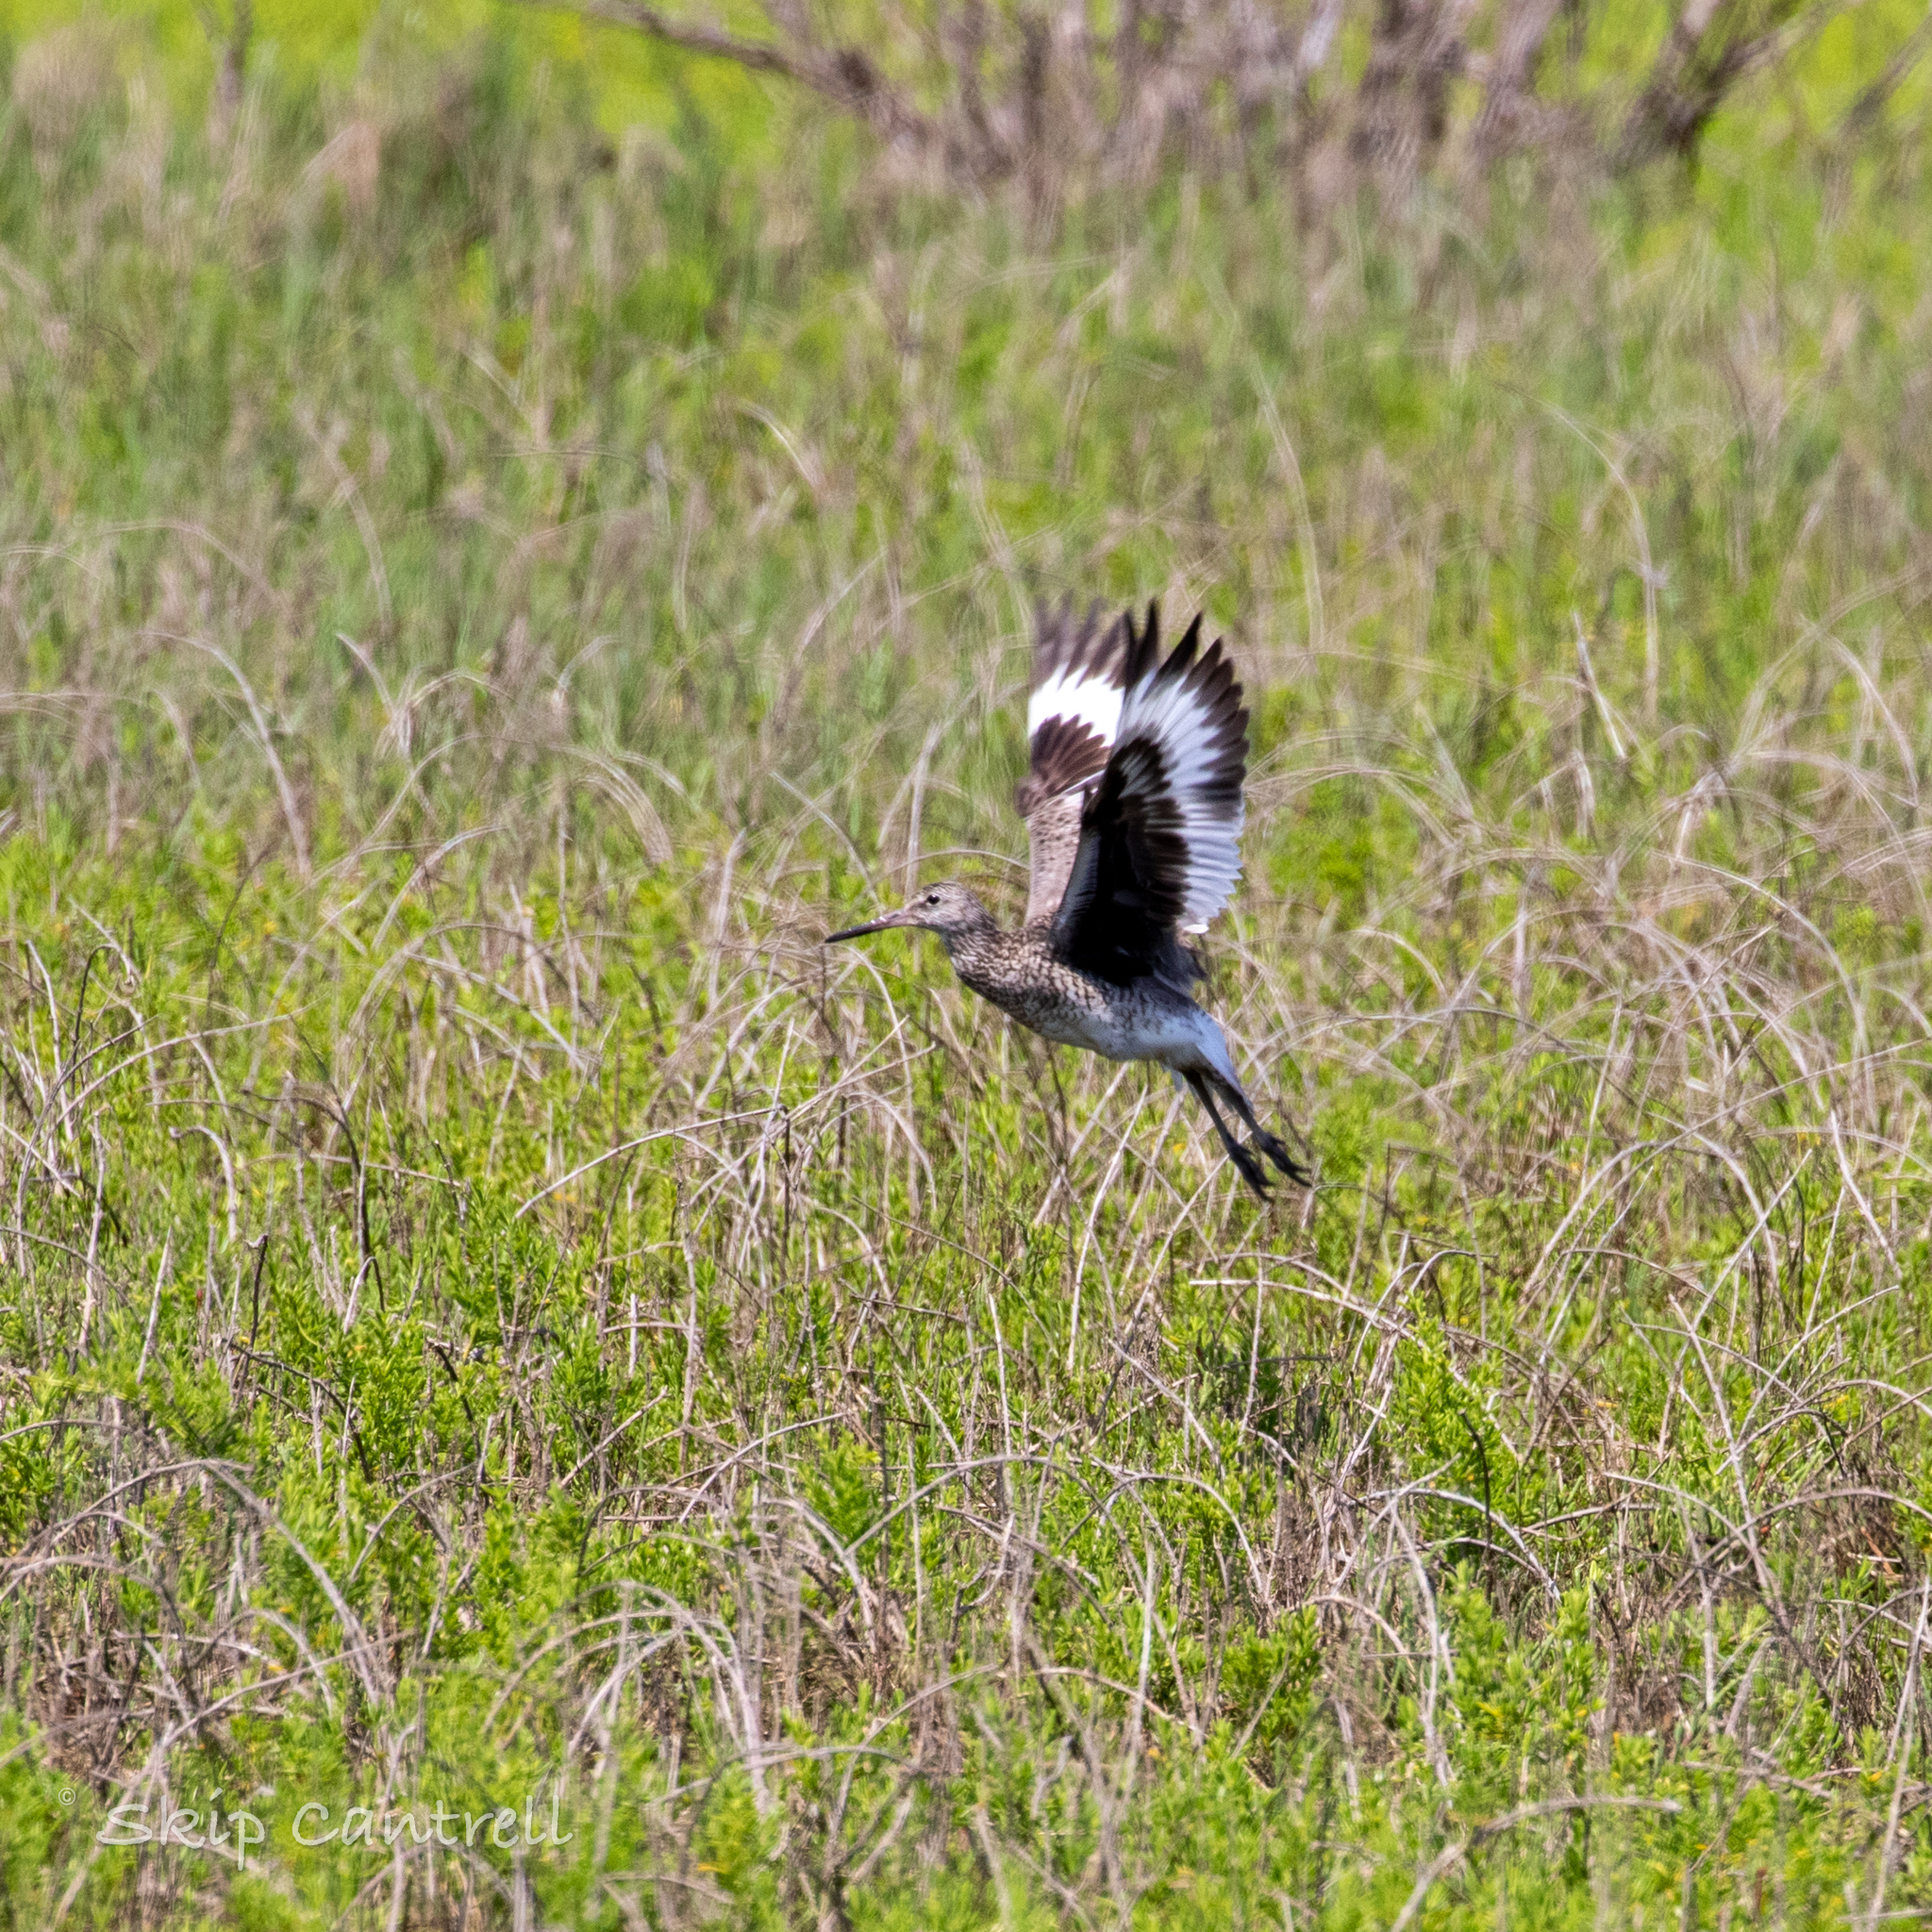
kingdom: Animalia
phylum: Chordata
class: Aves
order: Charadriiformes
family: Scolopacidae
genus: Tringa
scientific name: Tringa semipalmata
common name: Willet
